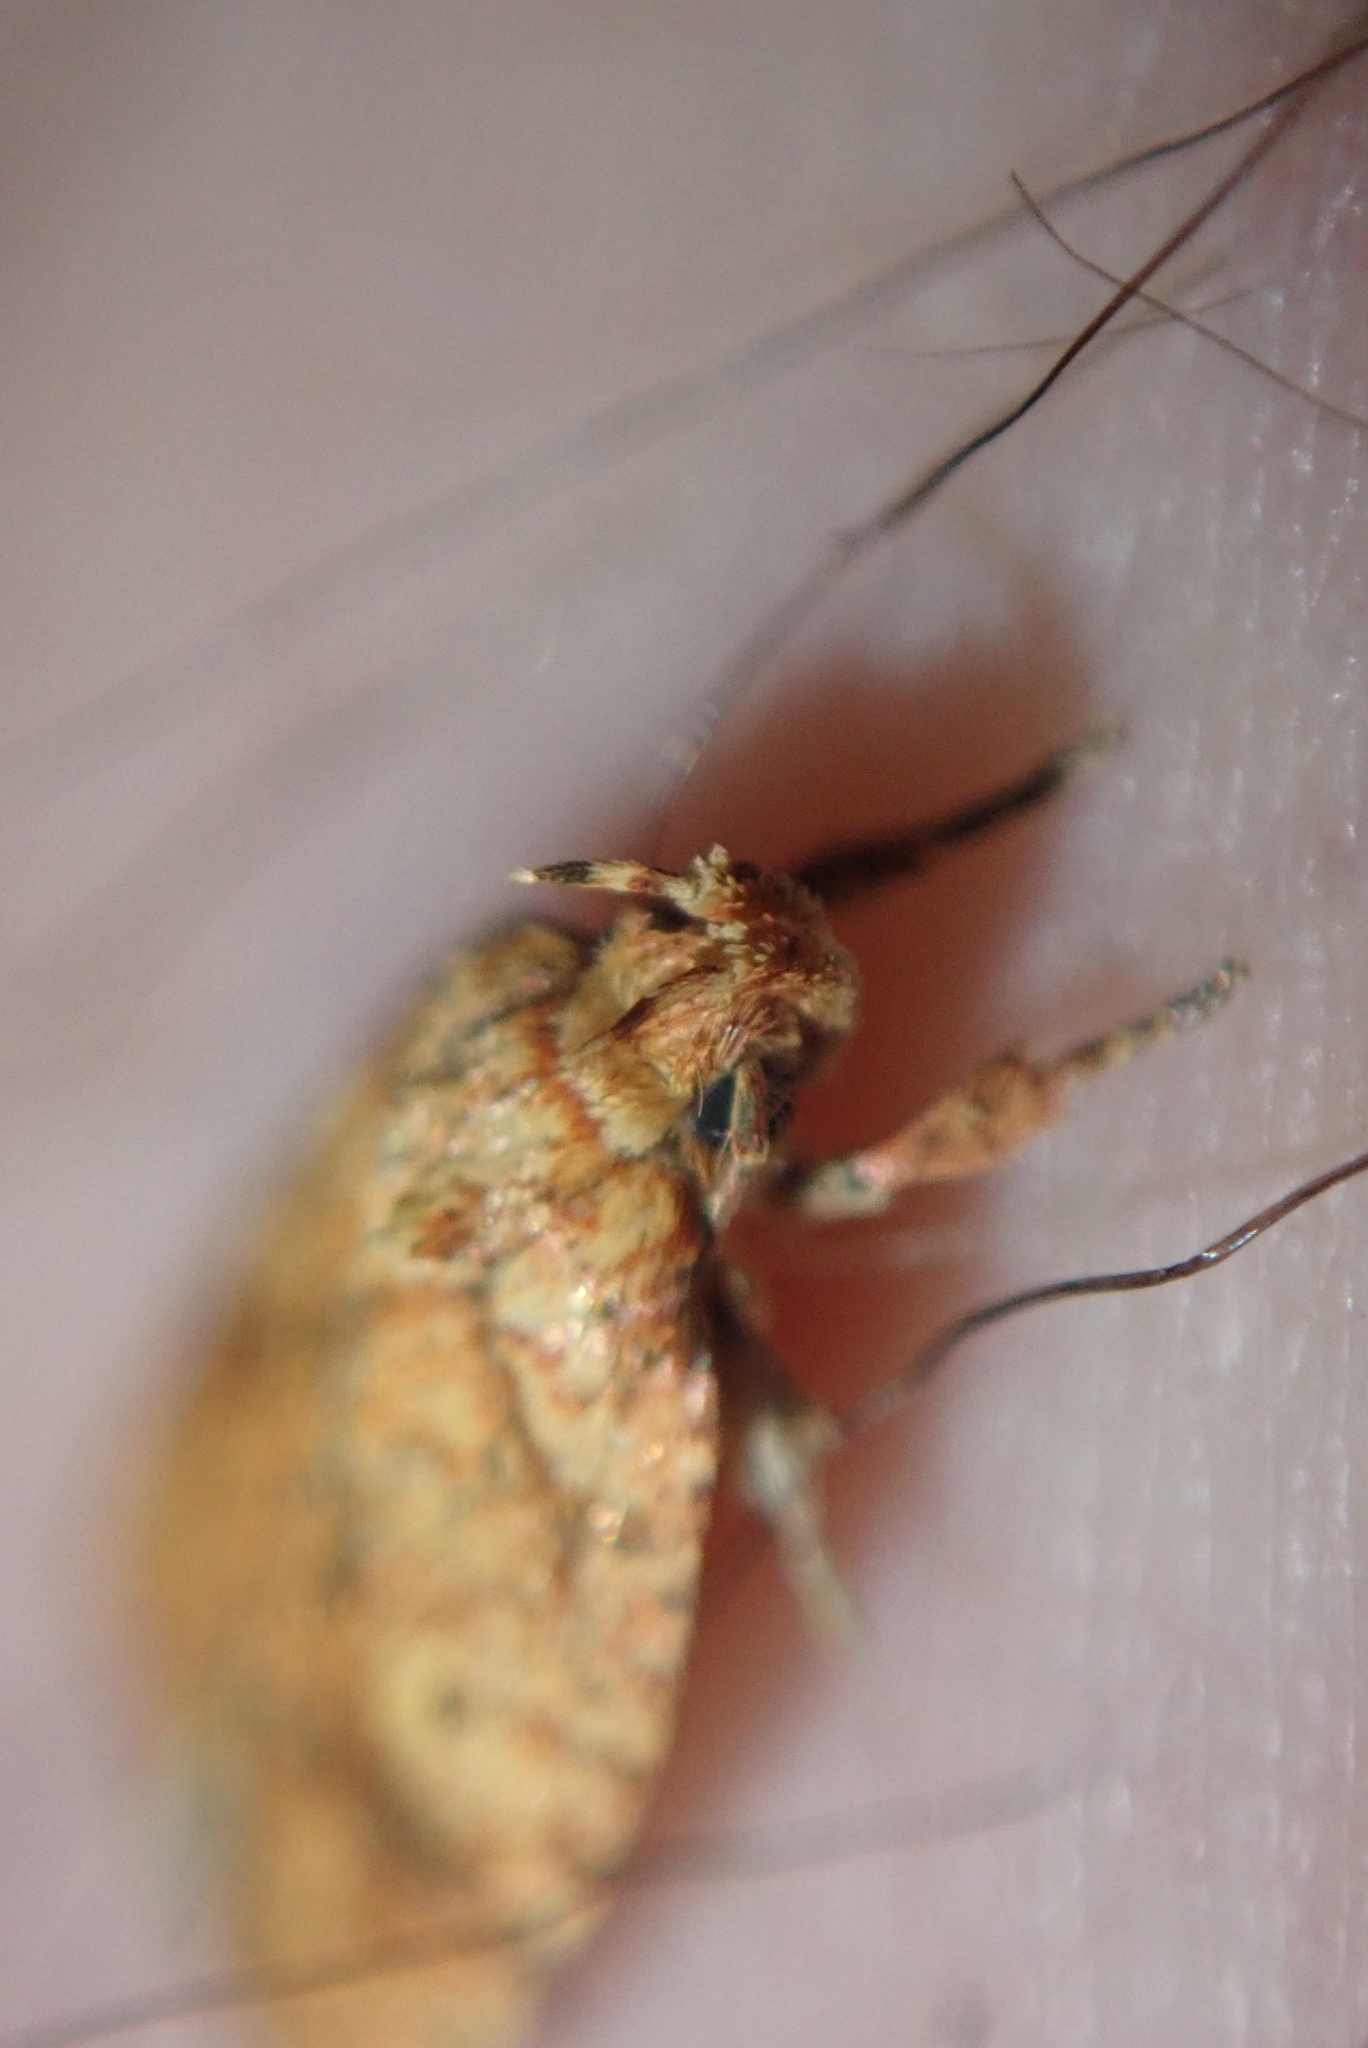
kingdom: Animalia
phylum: Arthropoda
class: Insecta
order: Lepidoptera
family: Depressariidae
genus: Agonopterix
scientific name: Agonopterix robiniella
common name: Four-dotted agonopterix moth
